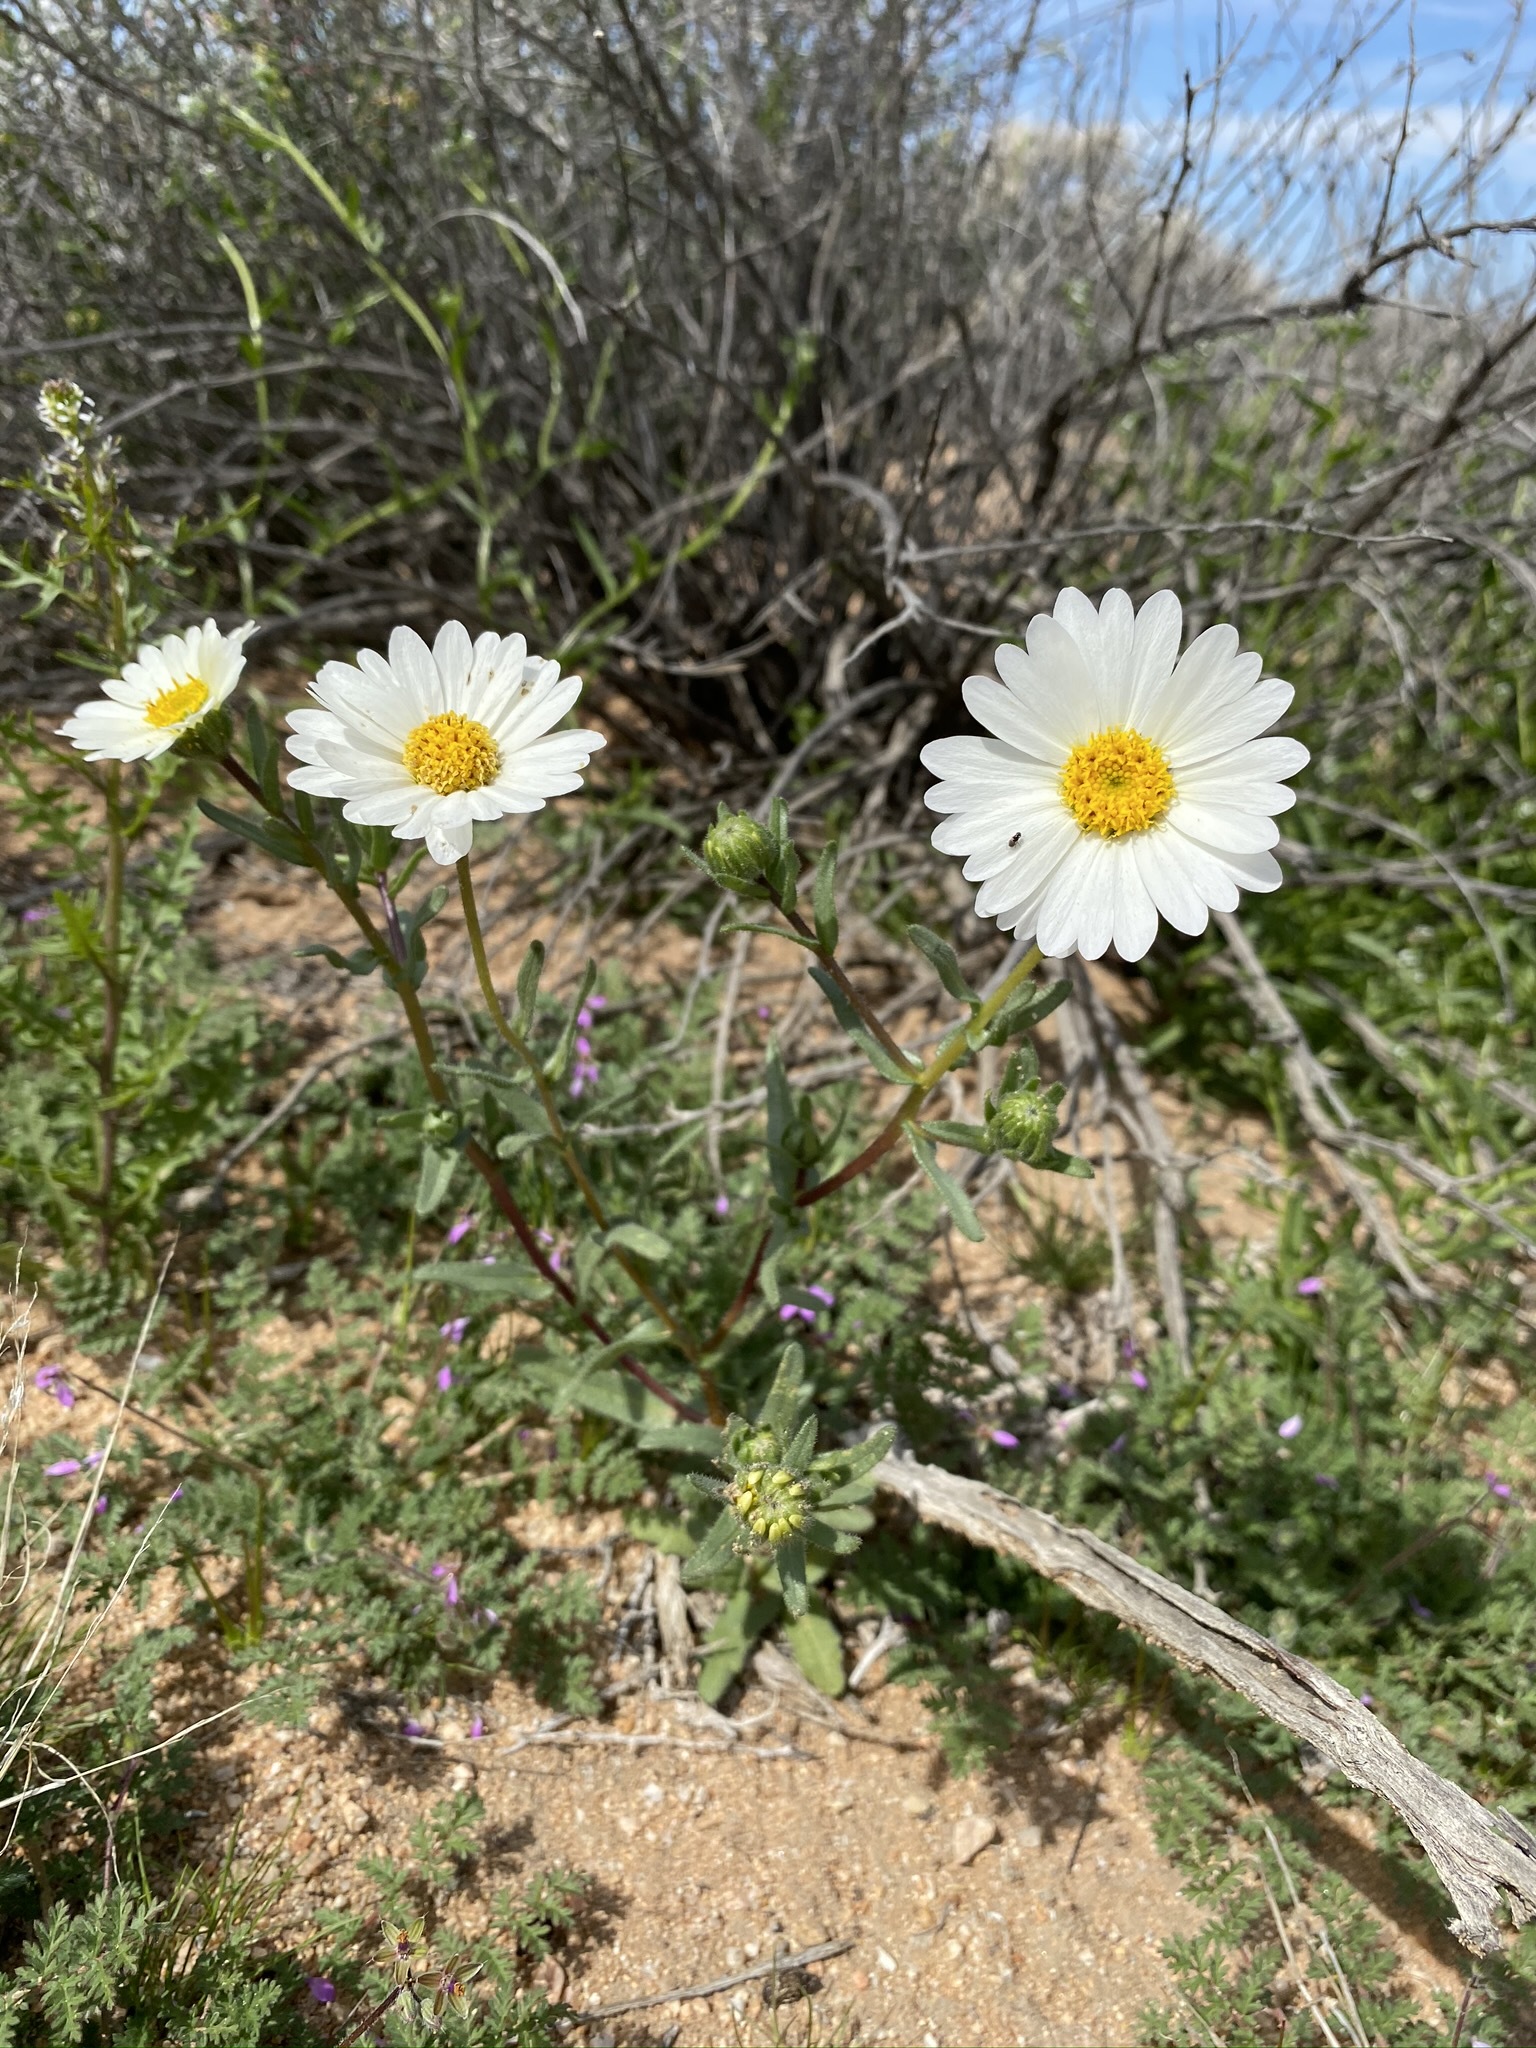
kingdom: Plantae
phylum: Tracheophyta
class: Magnoliopsida
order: Asterales
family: Asteraceae
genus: Layia
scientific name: Layia glandulosa
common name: White layia
